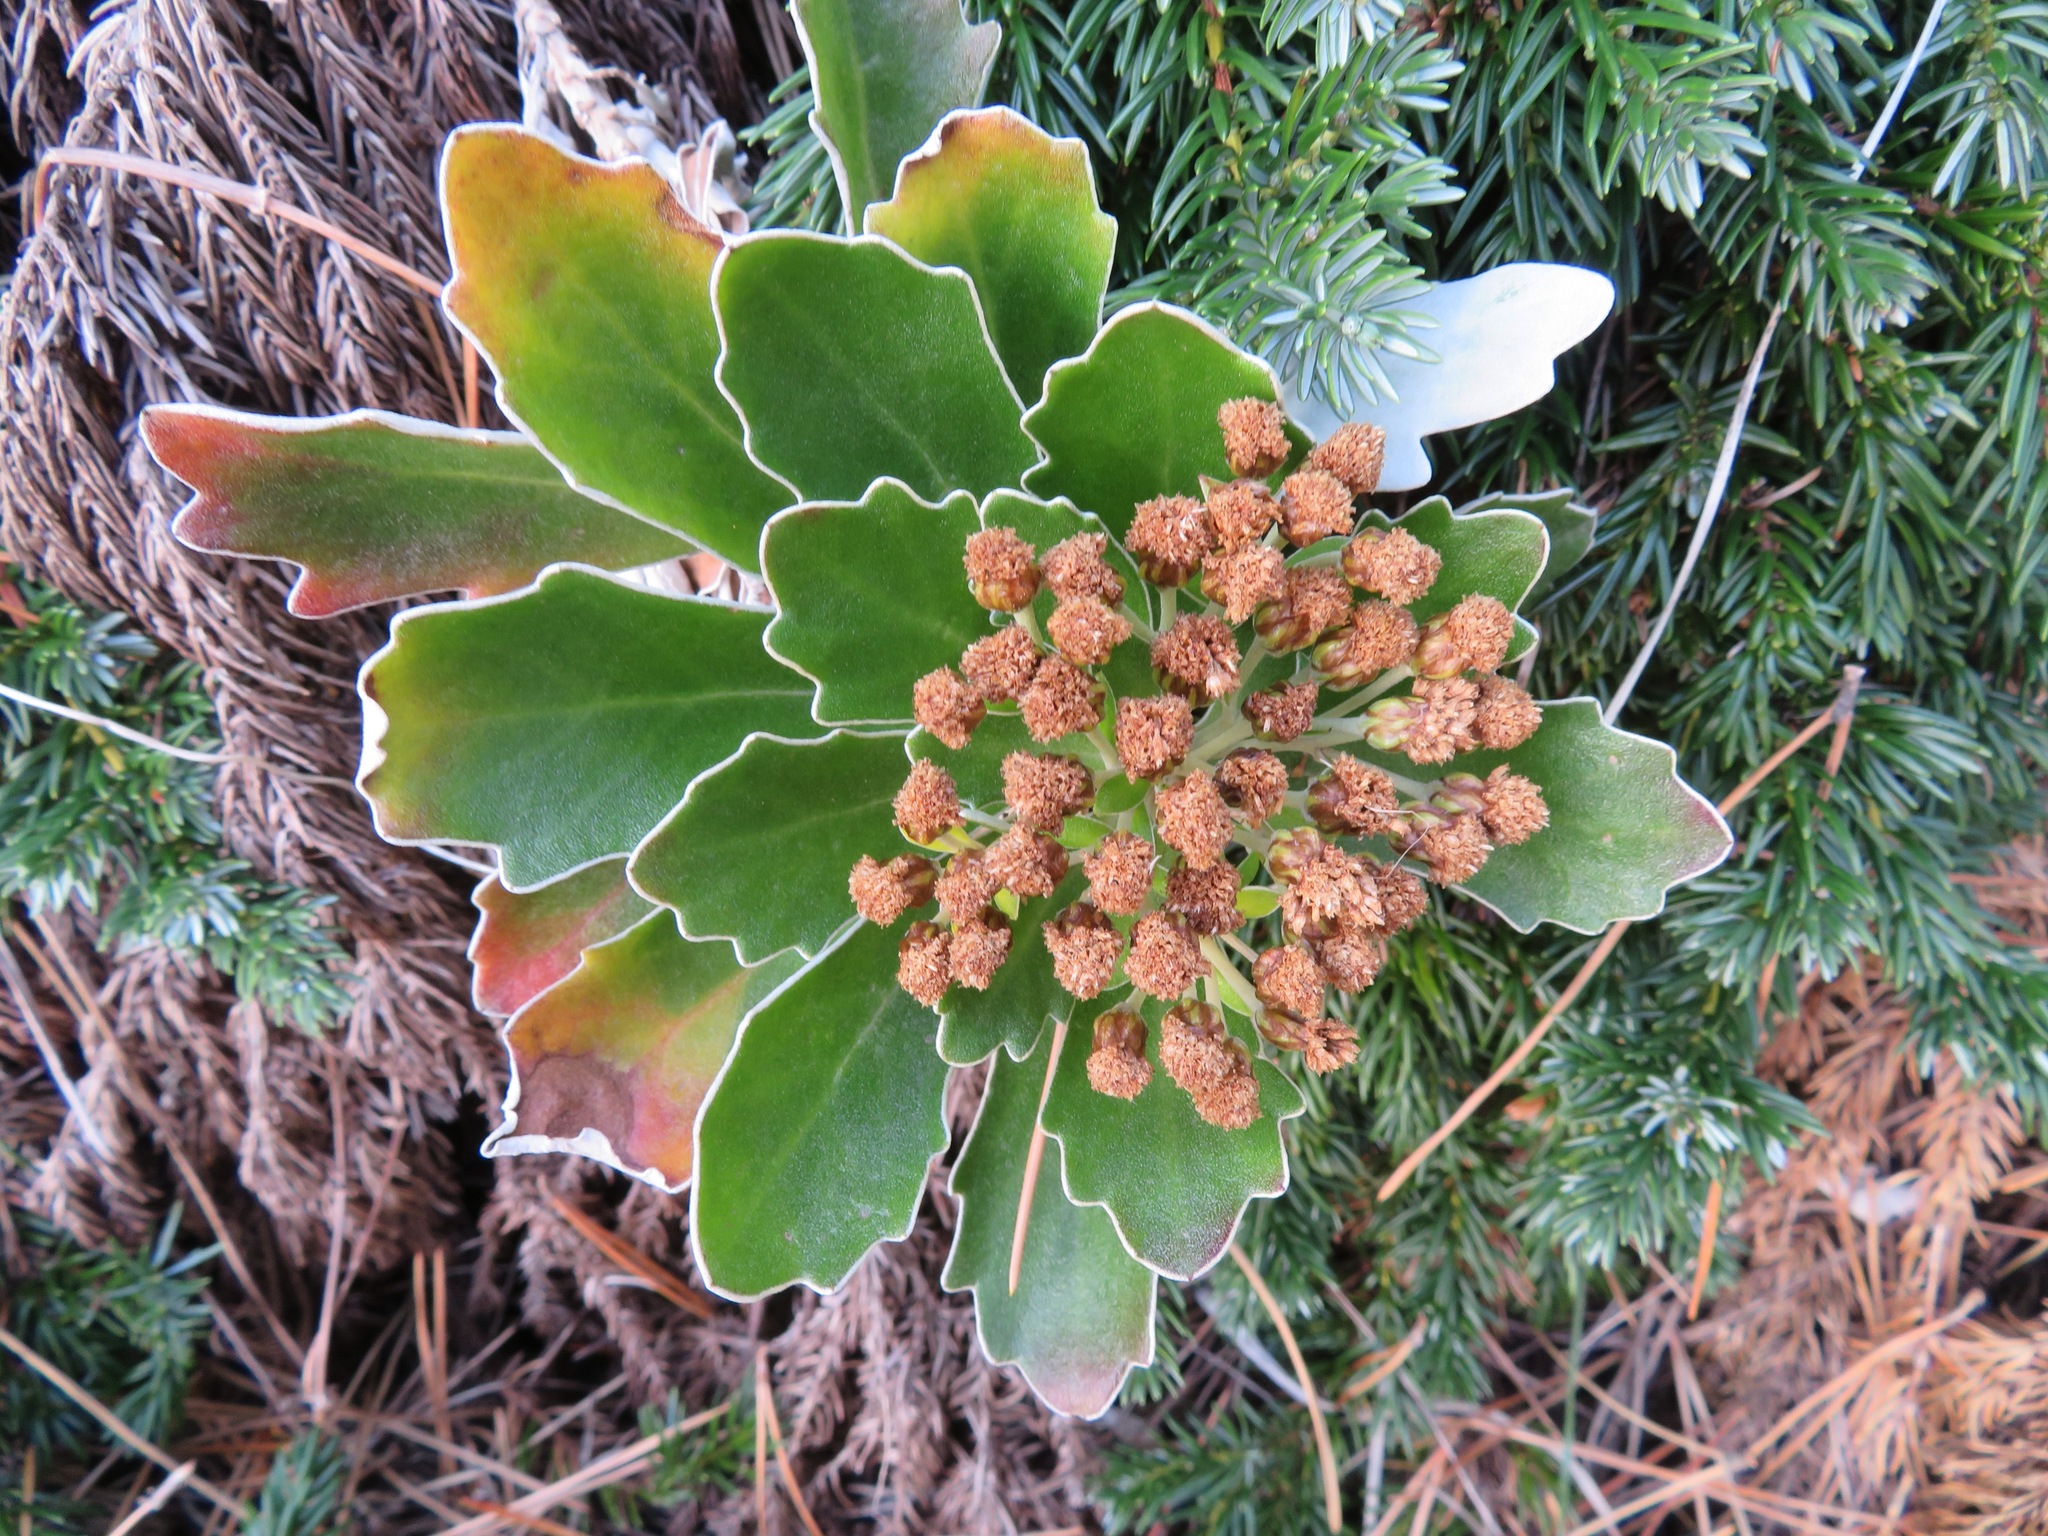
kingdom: Plantae
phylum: Tracheophyta
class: Magnoliopsida
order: Asterales
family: Asteraceae
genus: Ajania
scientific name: Ajania pacifica
